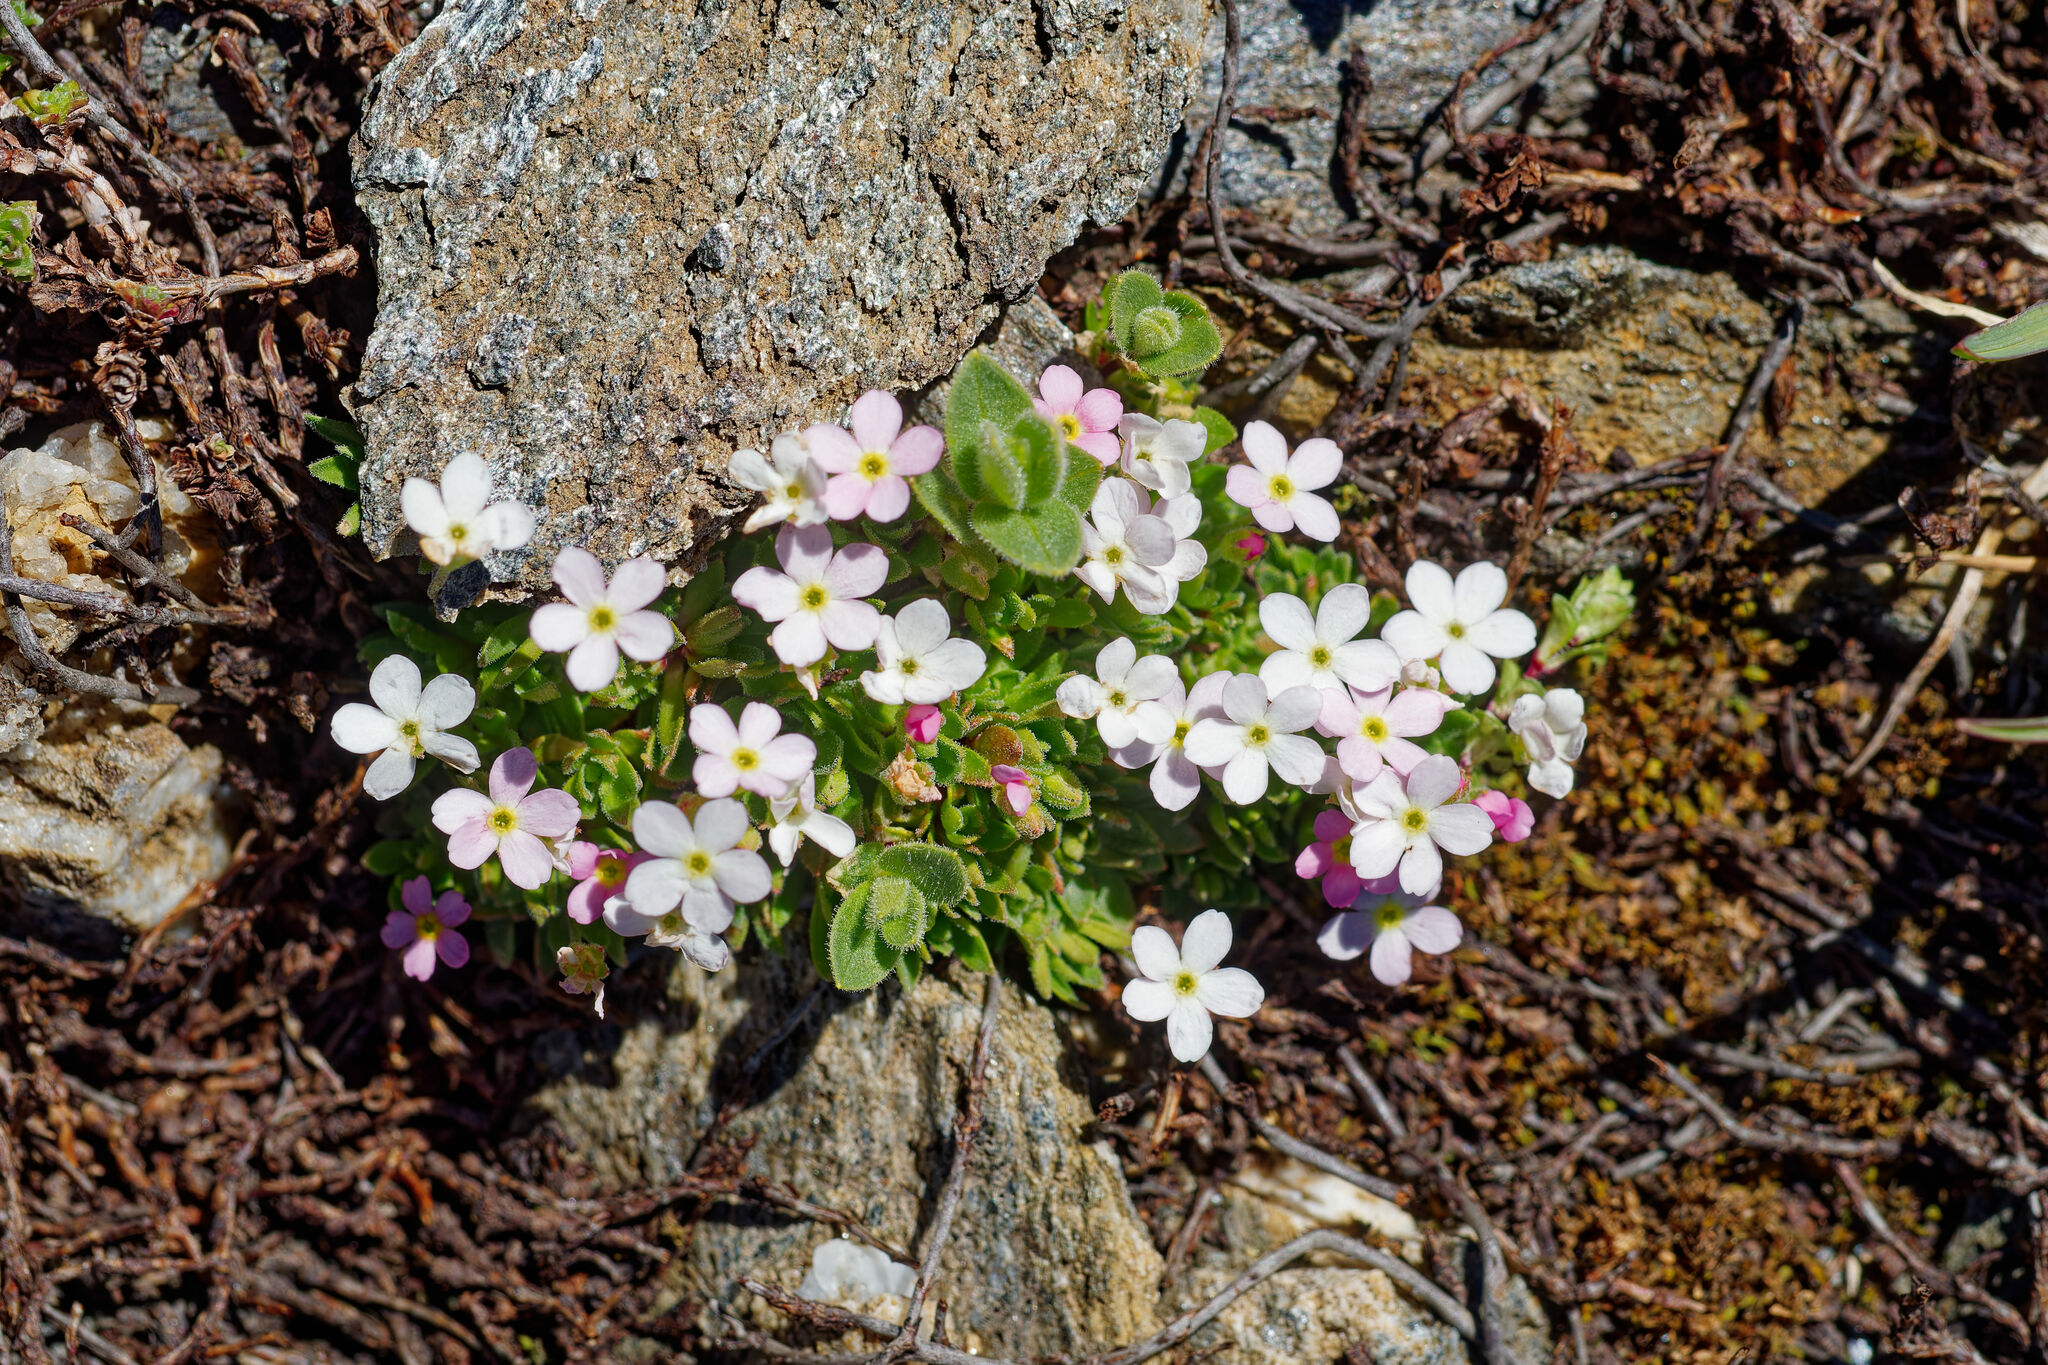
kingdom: Plantae
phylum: Tracheophyta
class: Magnoliopsida
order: Ericales
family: Primulaceae
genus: Androsace
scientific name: Androsace alpina
